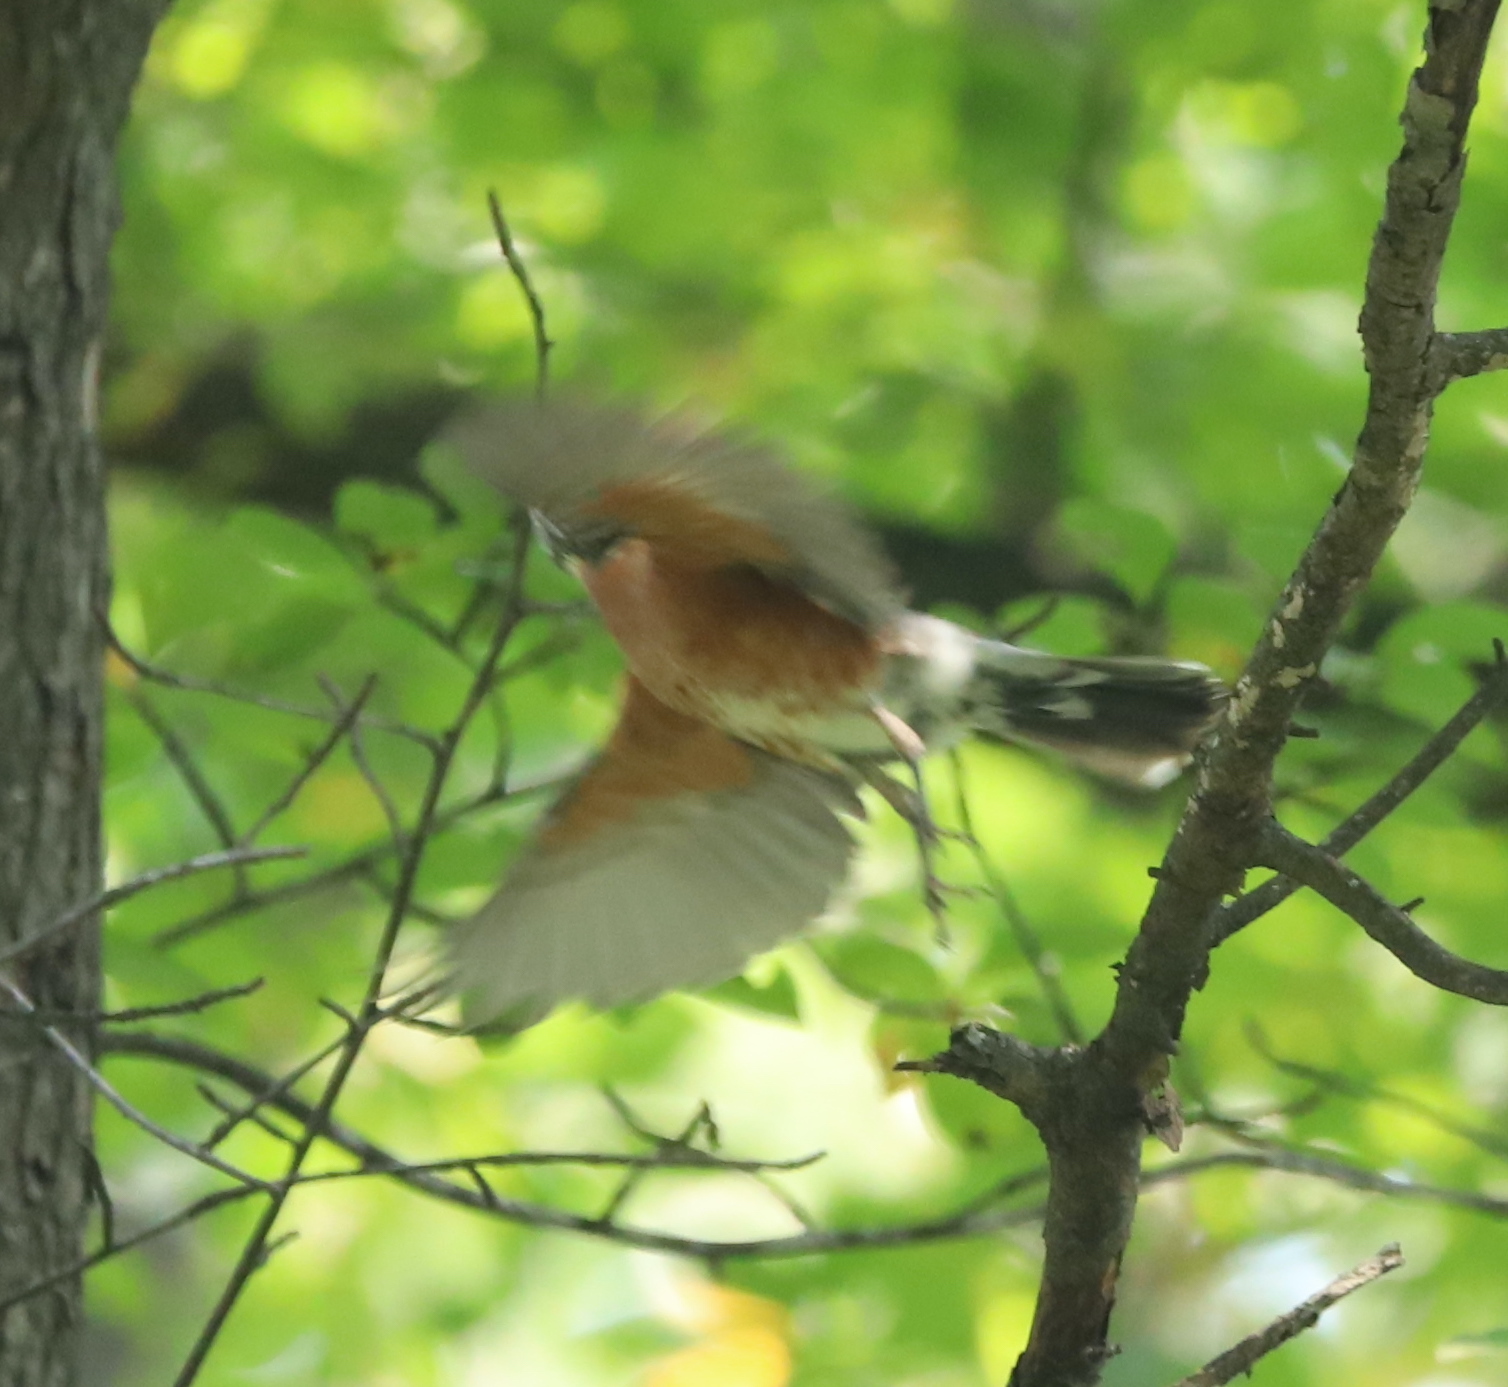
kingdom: Animalia
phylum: Chordata
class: Aves
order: Passeriformes
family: Turdidae
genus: Turdus
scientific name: Turdus migratorius
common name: American robin
